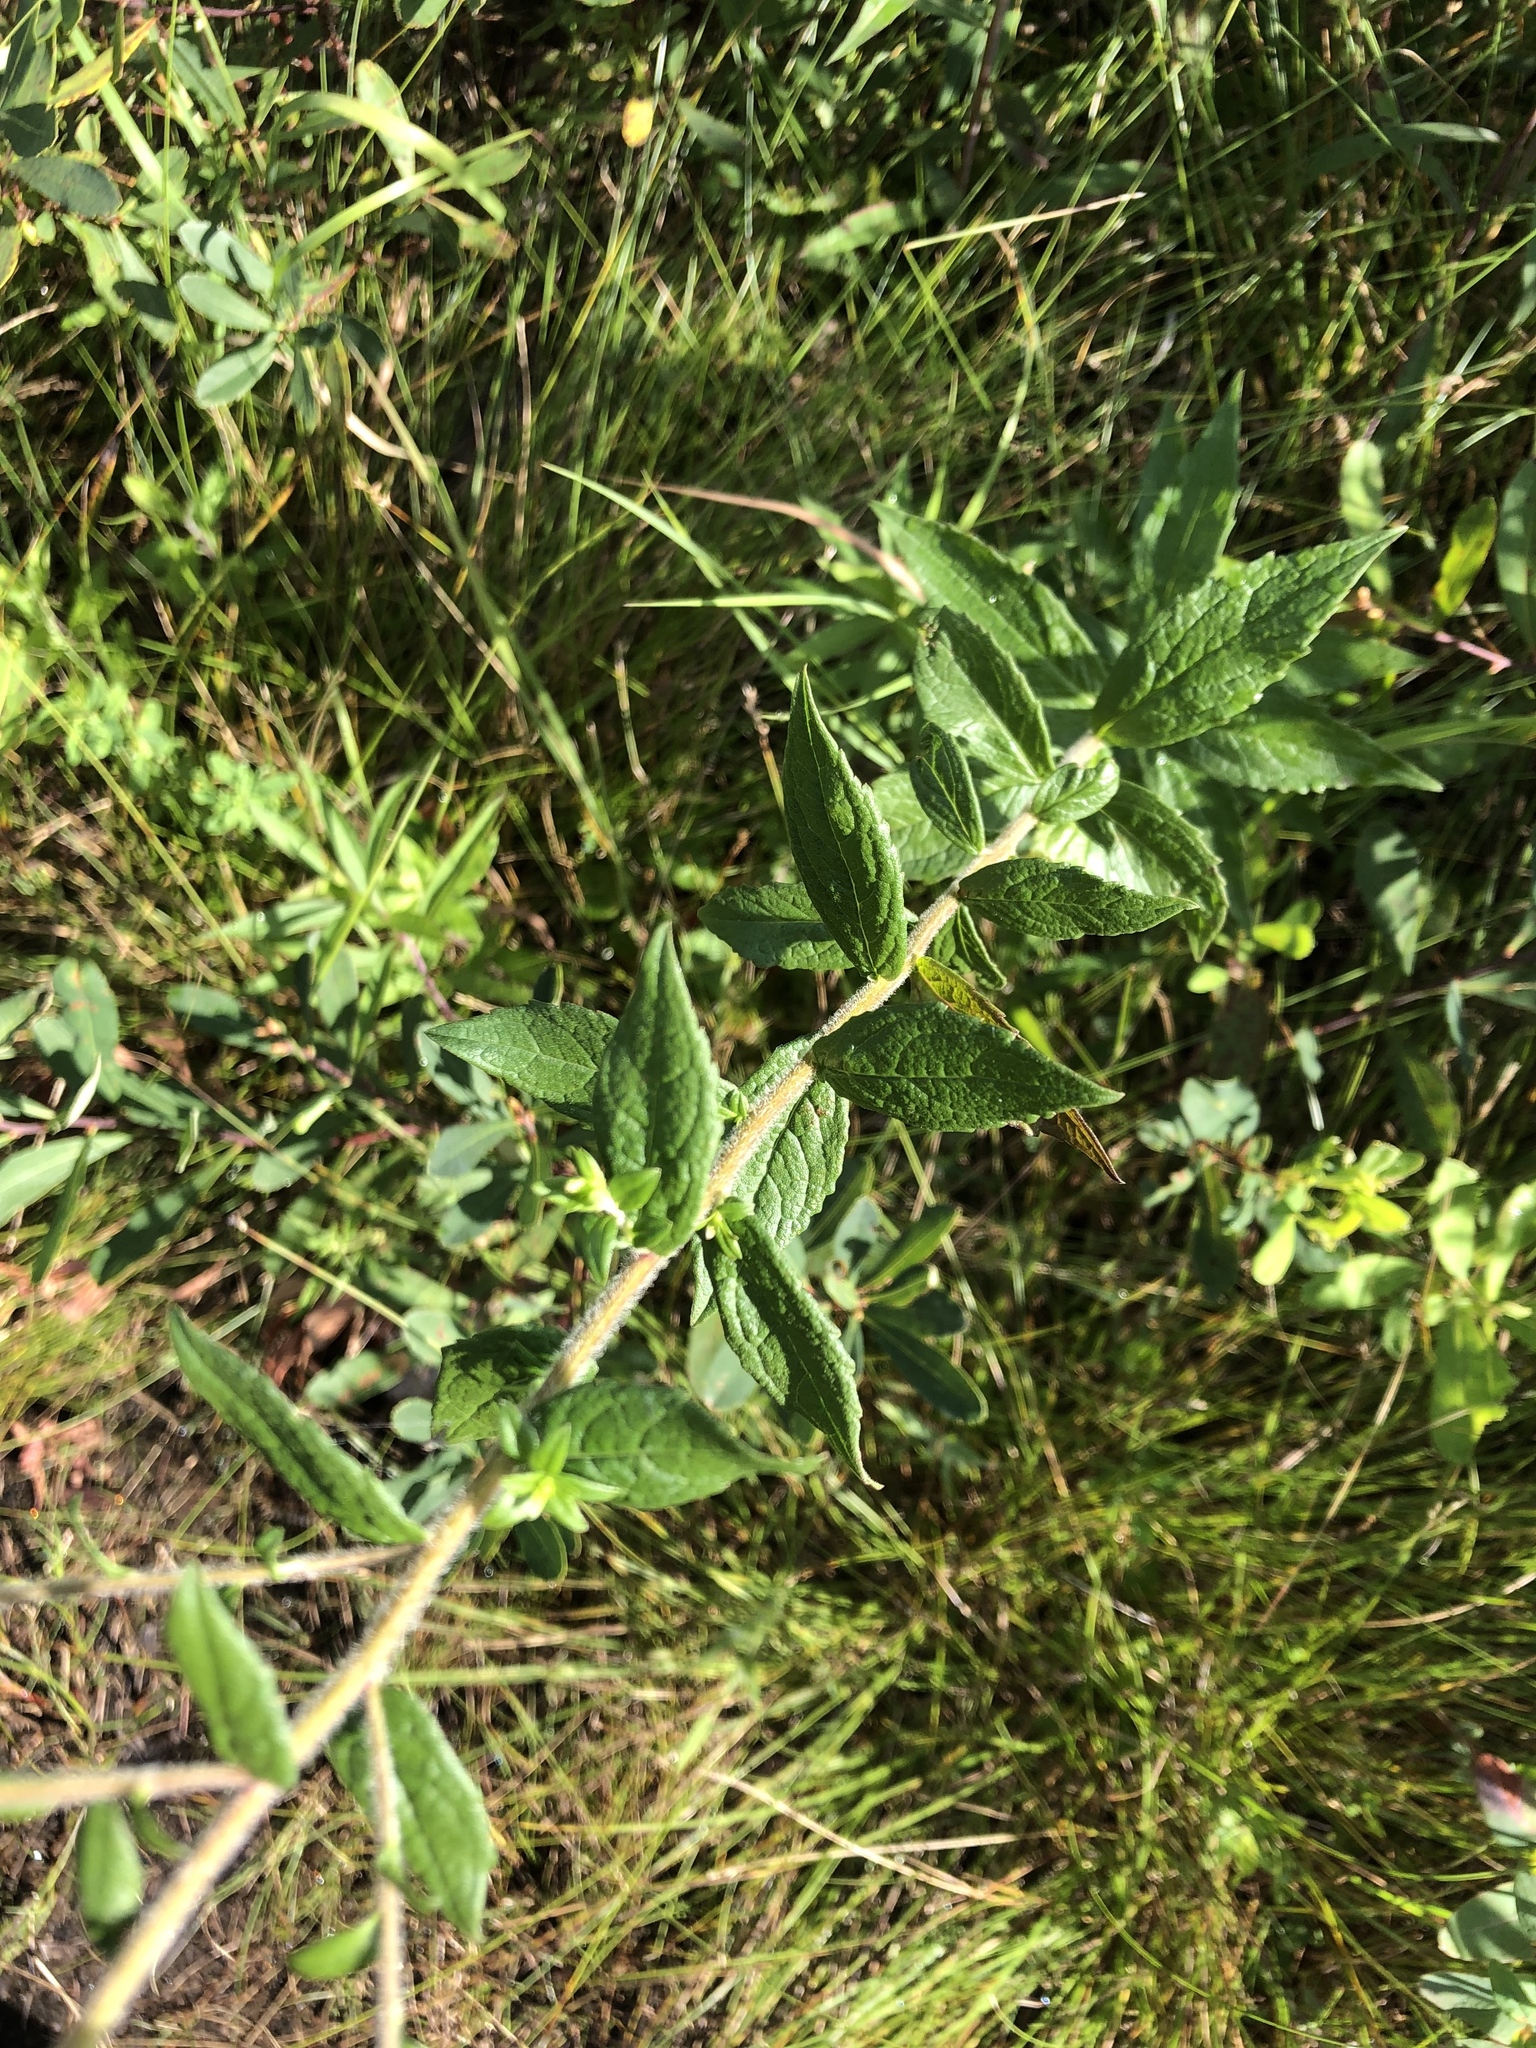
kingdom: Plantae
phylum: Tracheophyta
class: Magnoliopsida
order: Asterales
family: Asteraceae
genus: Solidago
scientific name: Solidago rugosa
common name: Rough-stemmed goldenrod
